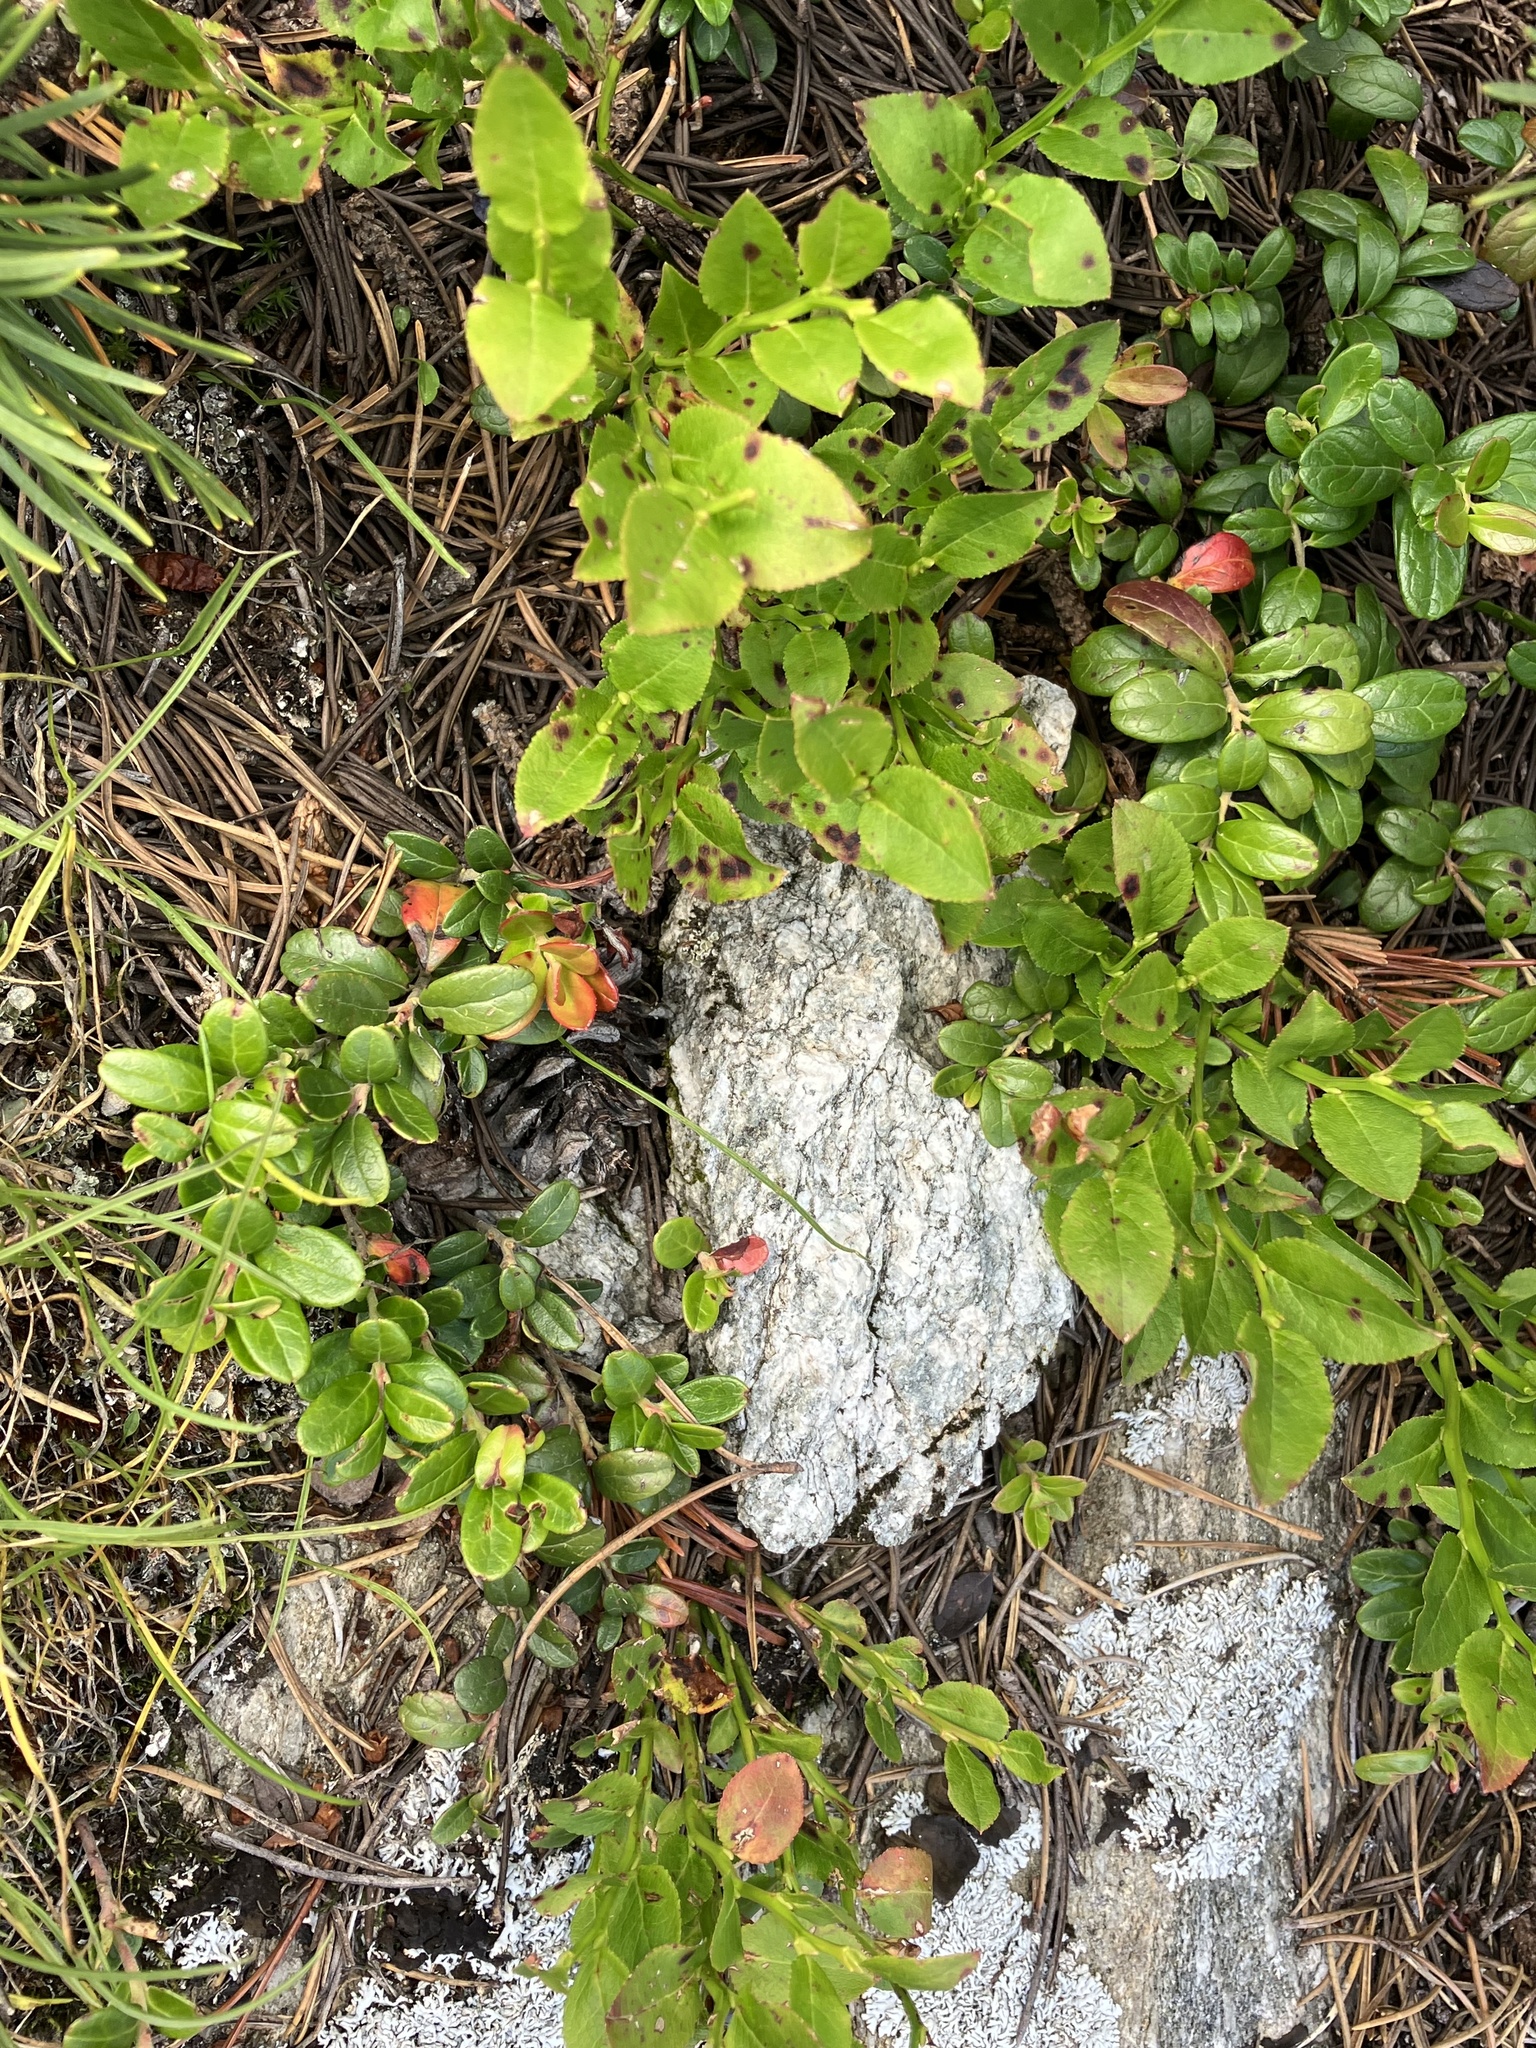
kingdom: Plantae
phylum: Tracheophyta
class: Magnoliopsida
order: Ericales
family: Ericaceae
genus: Vaccinium
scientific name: Vaccinium vitis-idaea
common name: Cowberry
